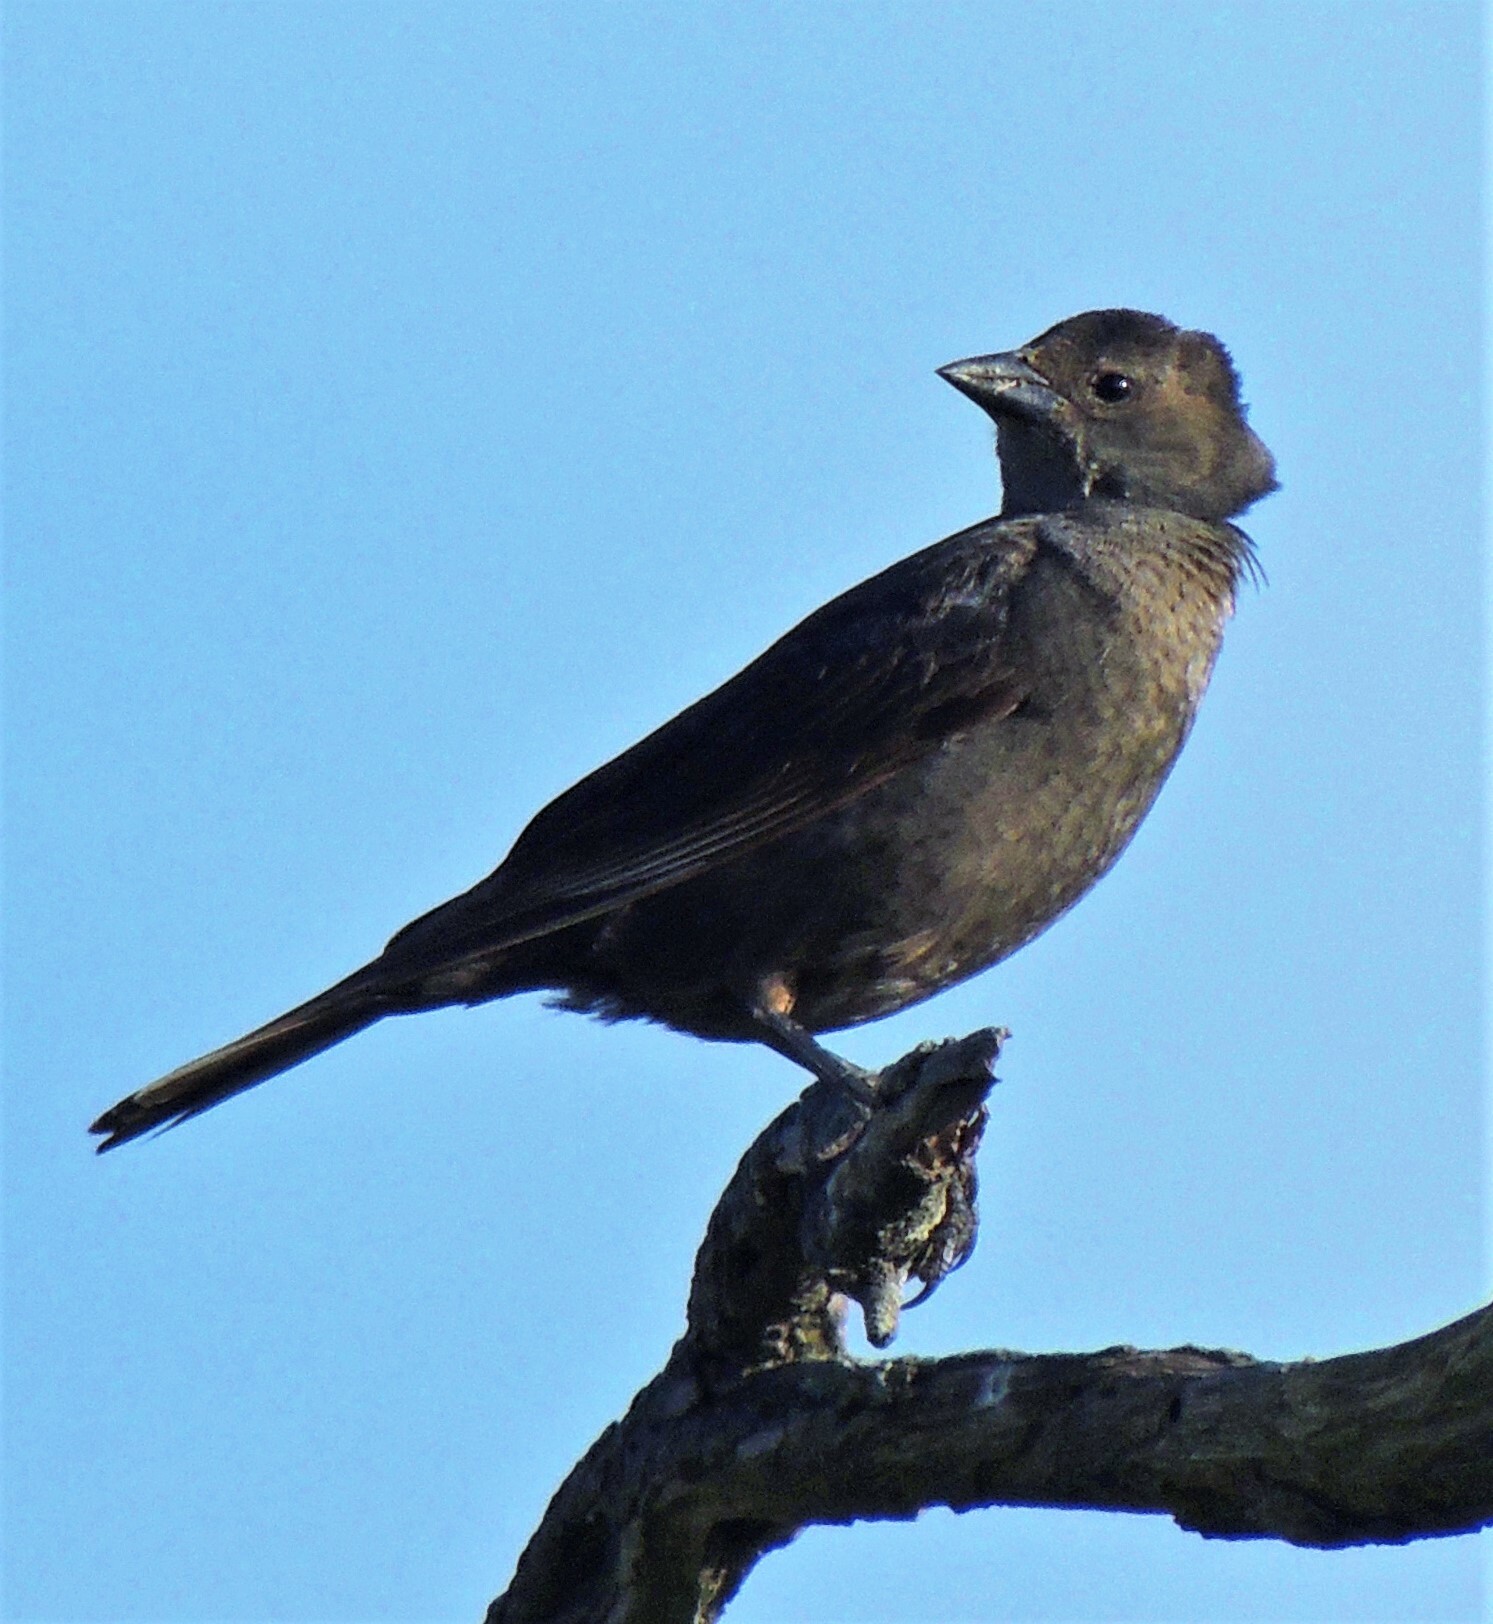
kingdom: Animalia
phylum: Chordata
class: Aves
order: Passeriformes
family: Icteridae
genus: Molothrus
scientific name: Molothrus bonariensis
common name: Shiny cowbird
